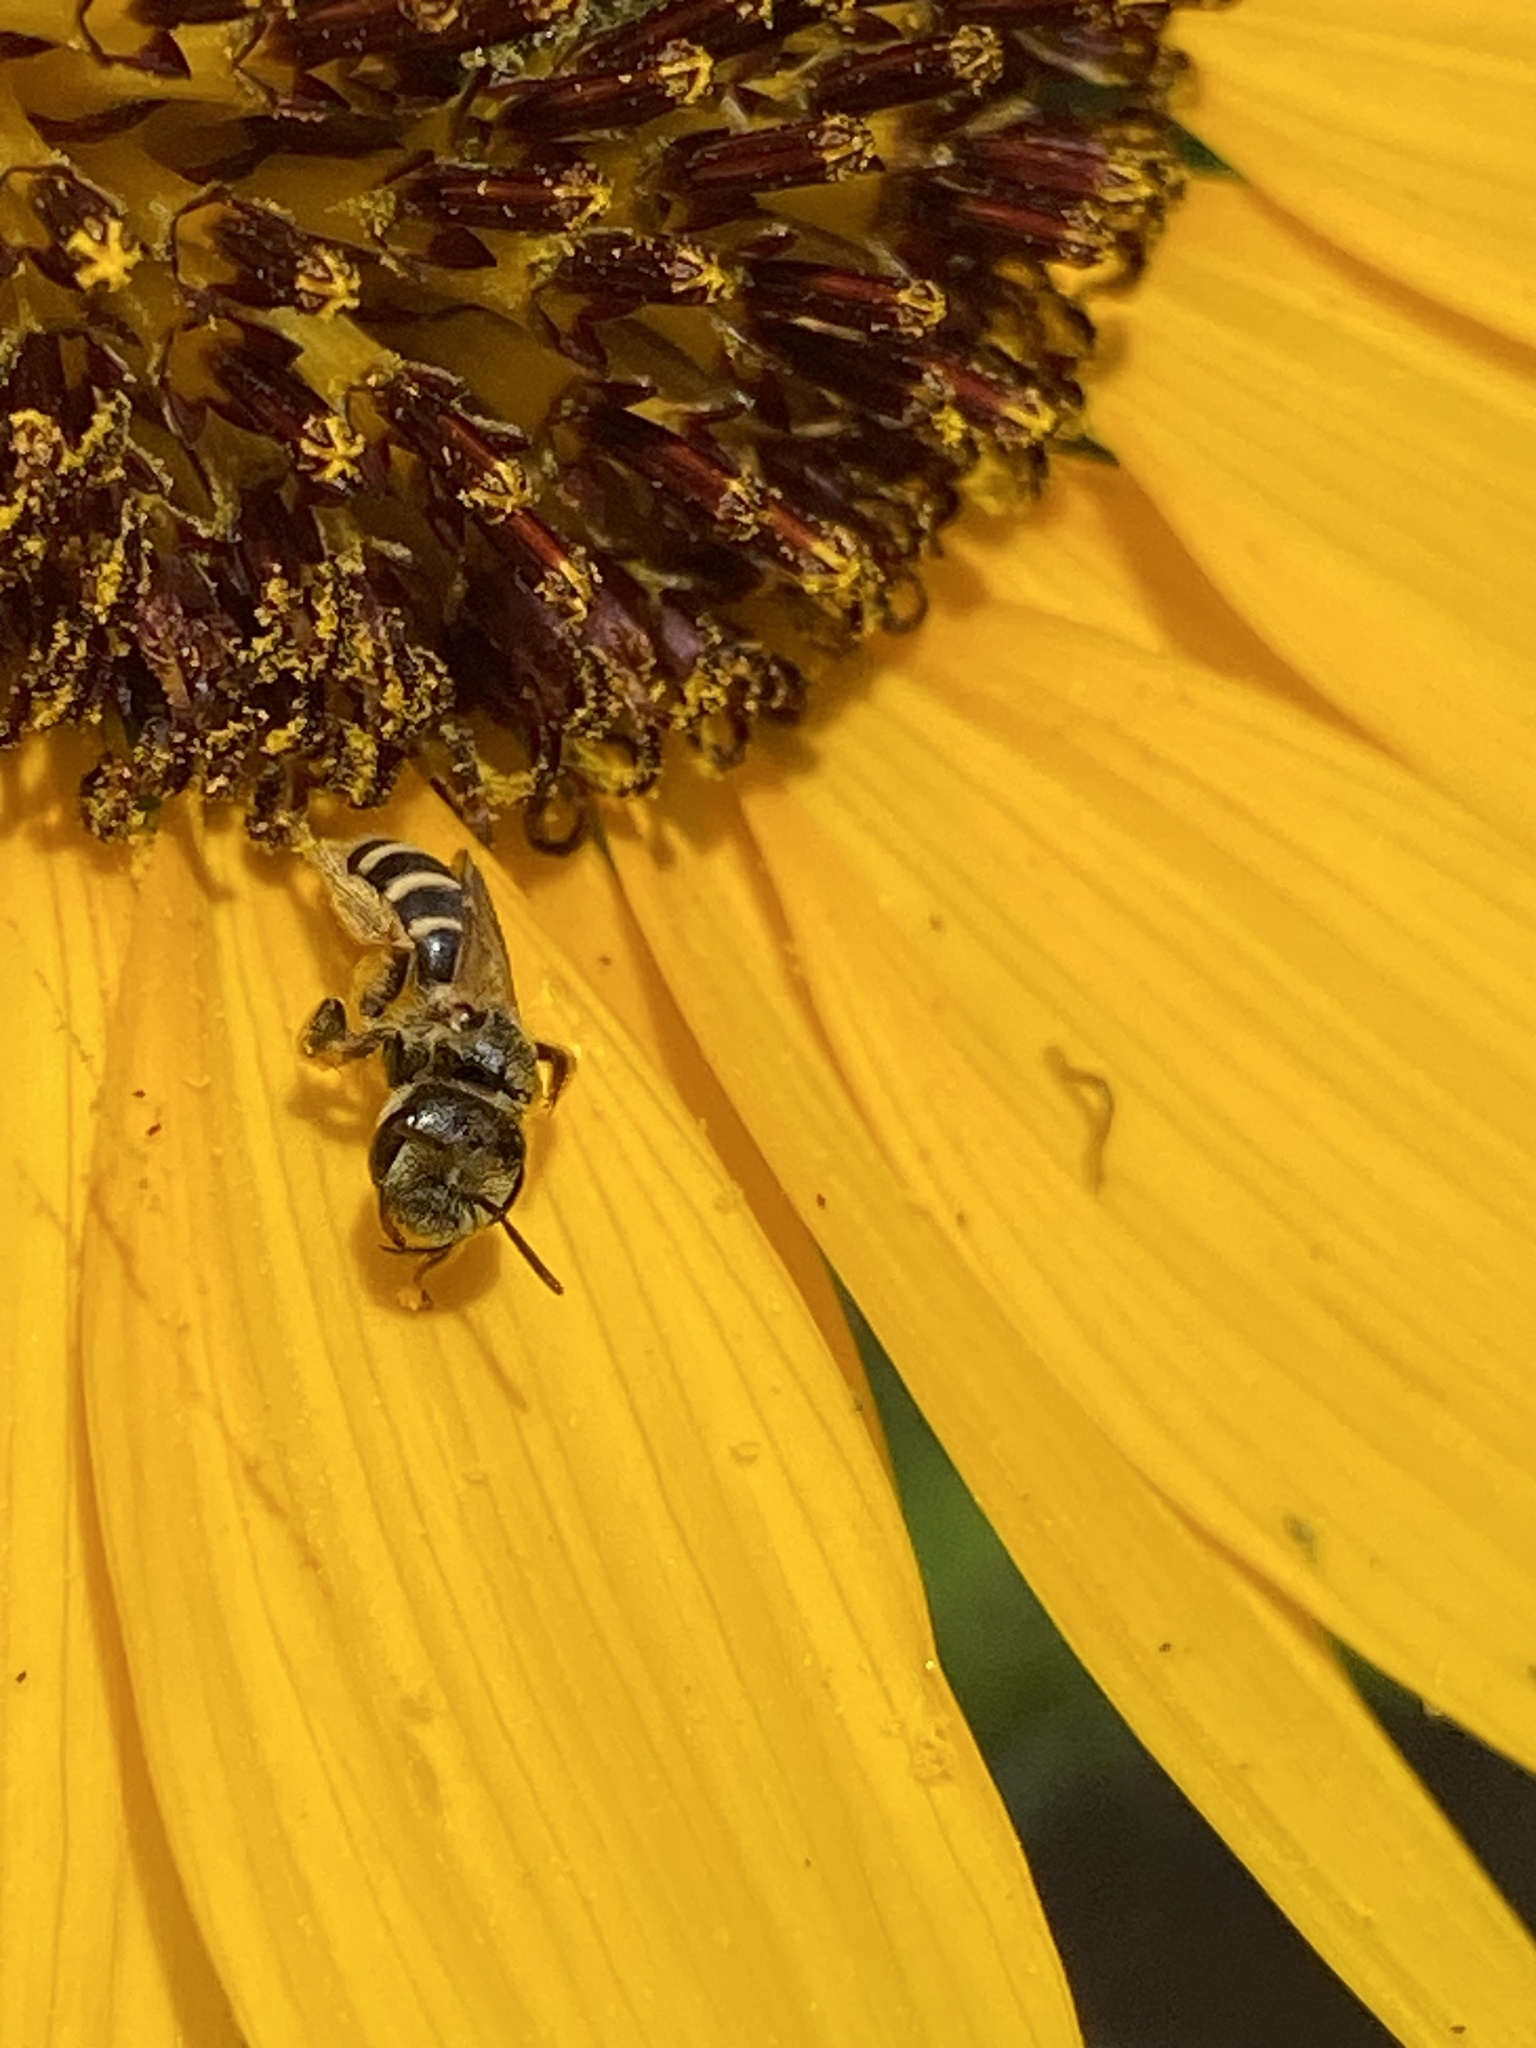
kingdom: Animalia
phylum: Arthropoda
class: Insecta
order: Hymenoptera
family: Halictidae
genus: Halictus
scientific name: Halictus ligatus
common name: Ligated furrow bee
